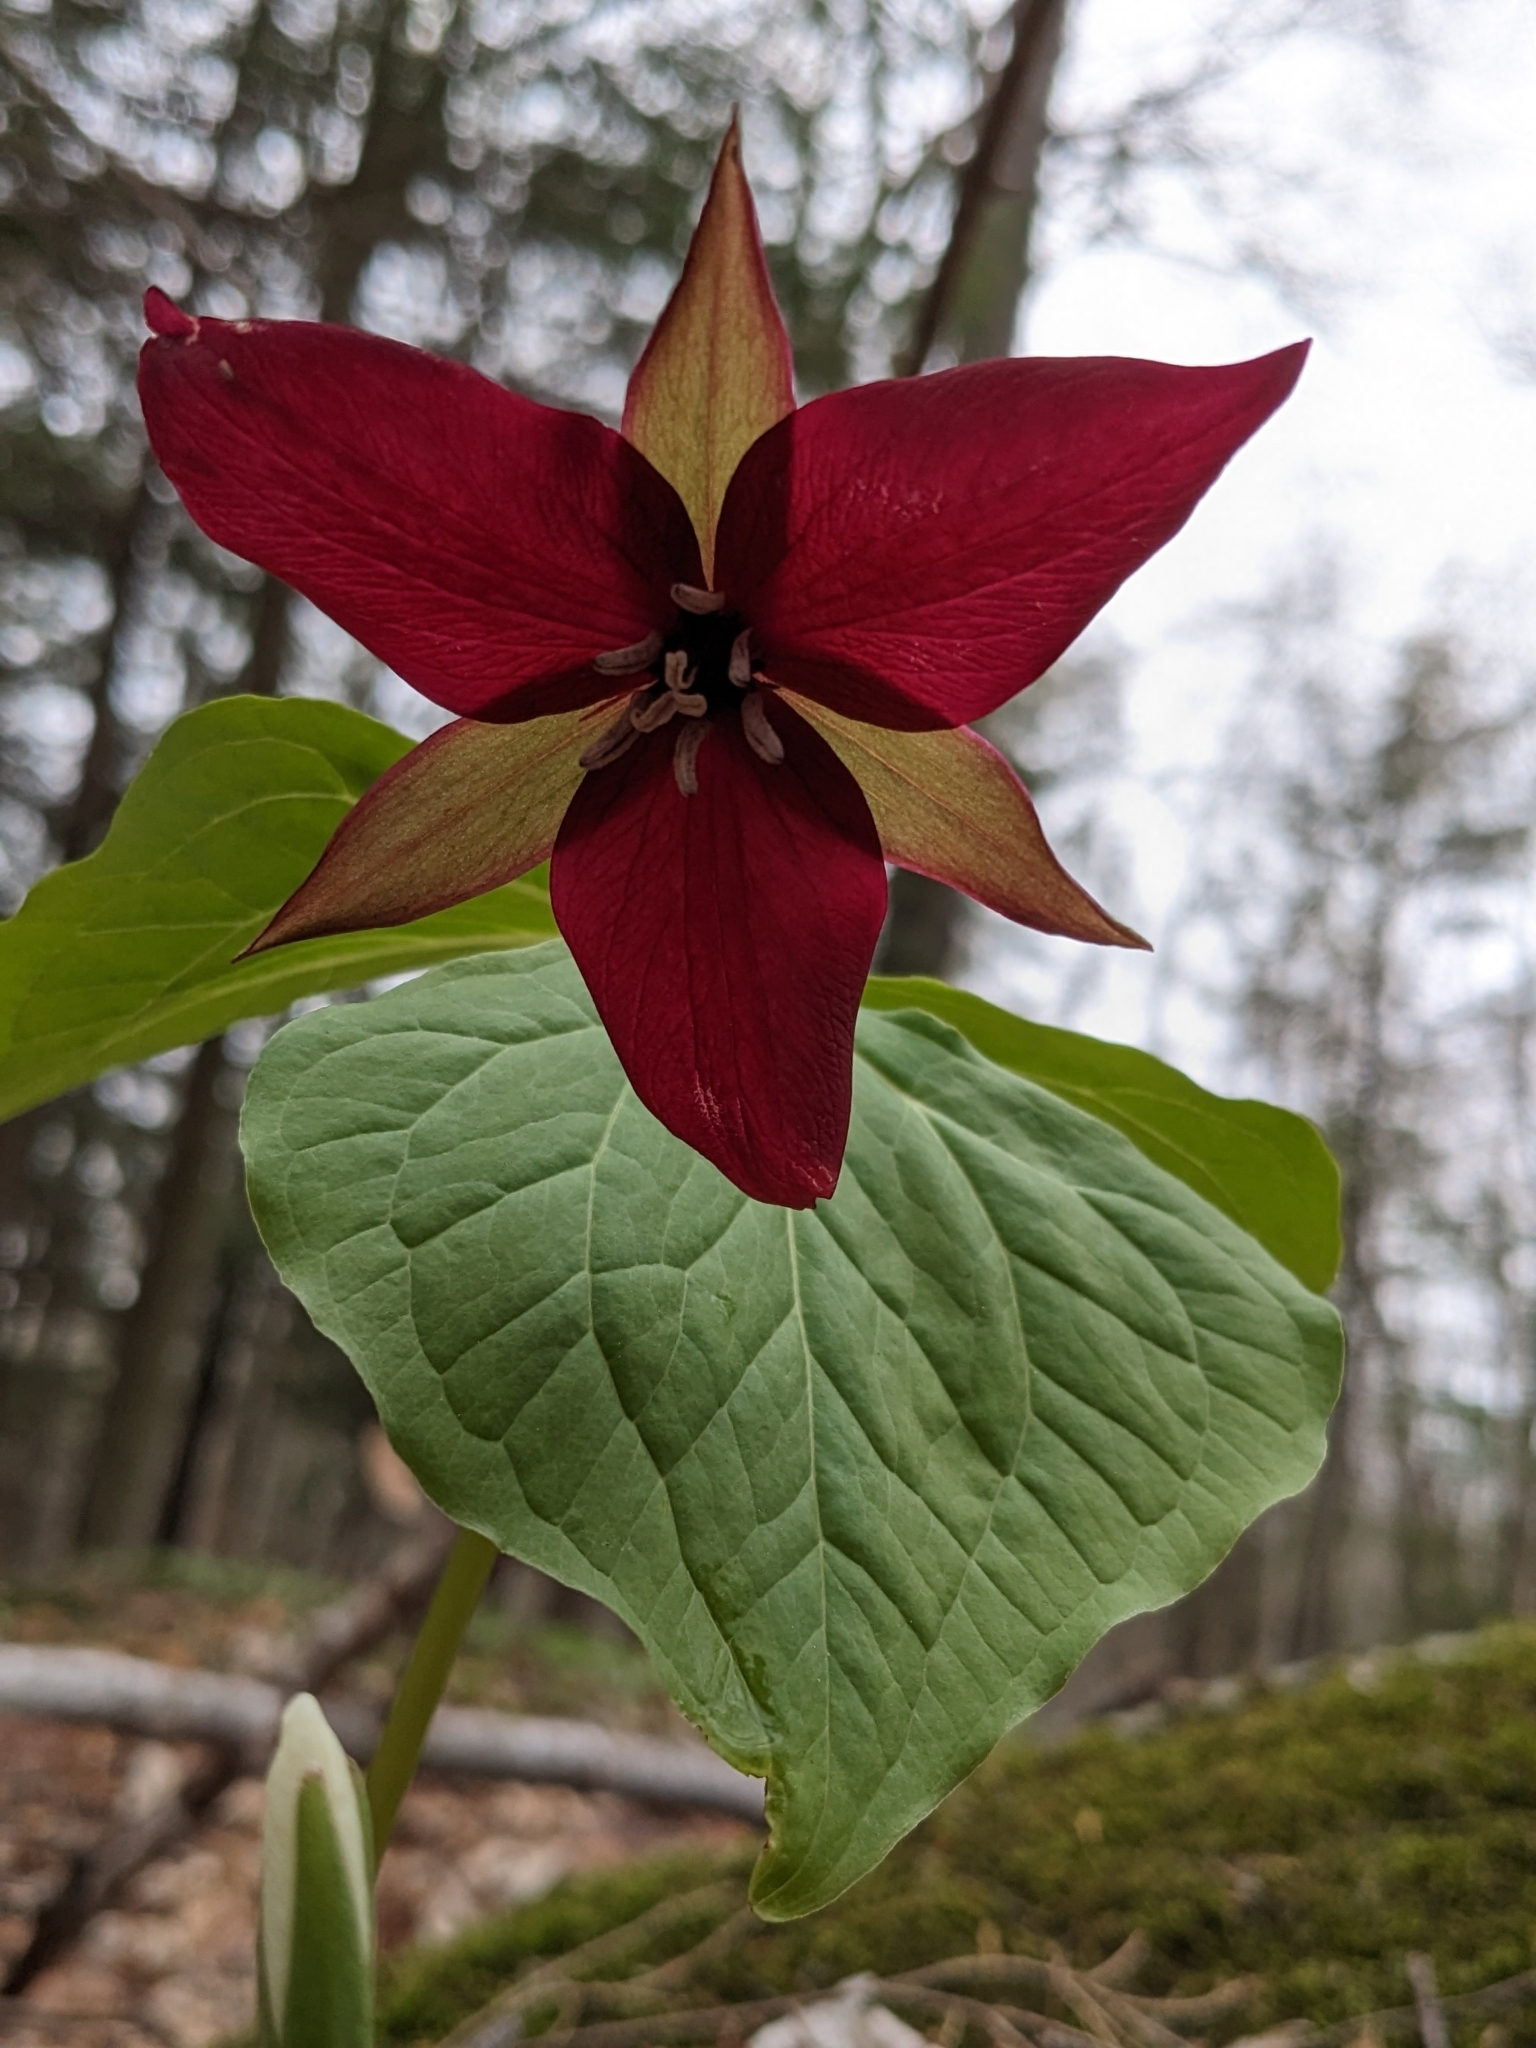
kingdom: Plantae
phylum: Tracheophyta
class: Liliopsida
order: Liliales
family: Melanthiaceae
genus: Trillium
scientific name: Trillium erectum
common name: Purple trillium
